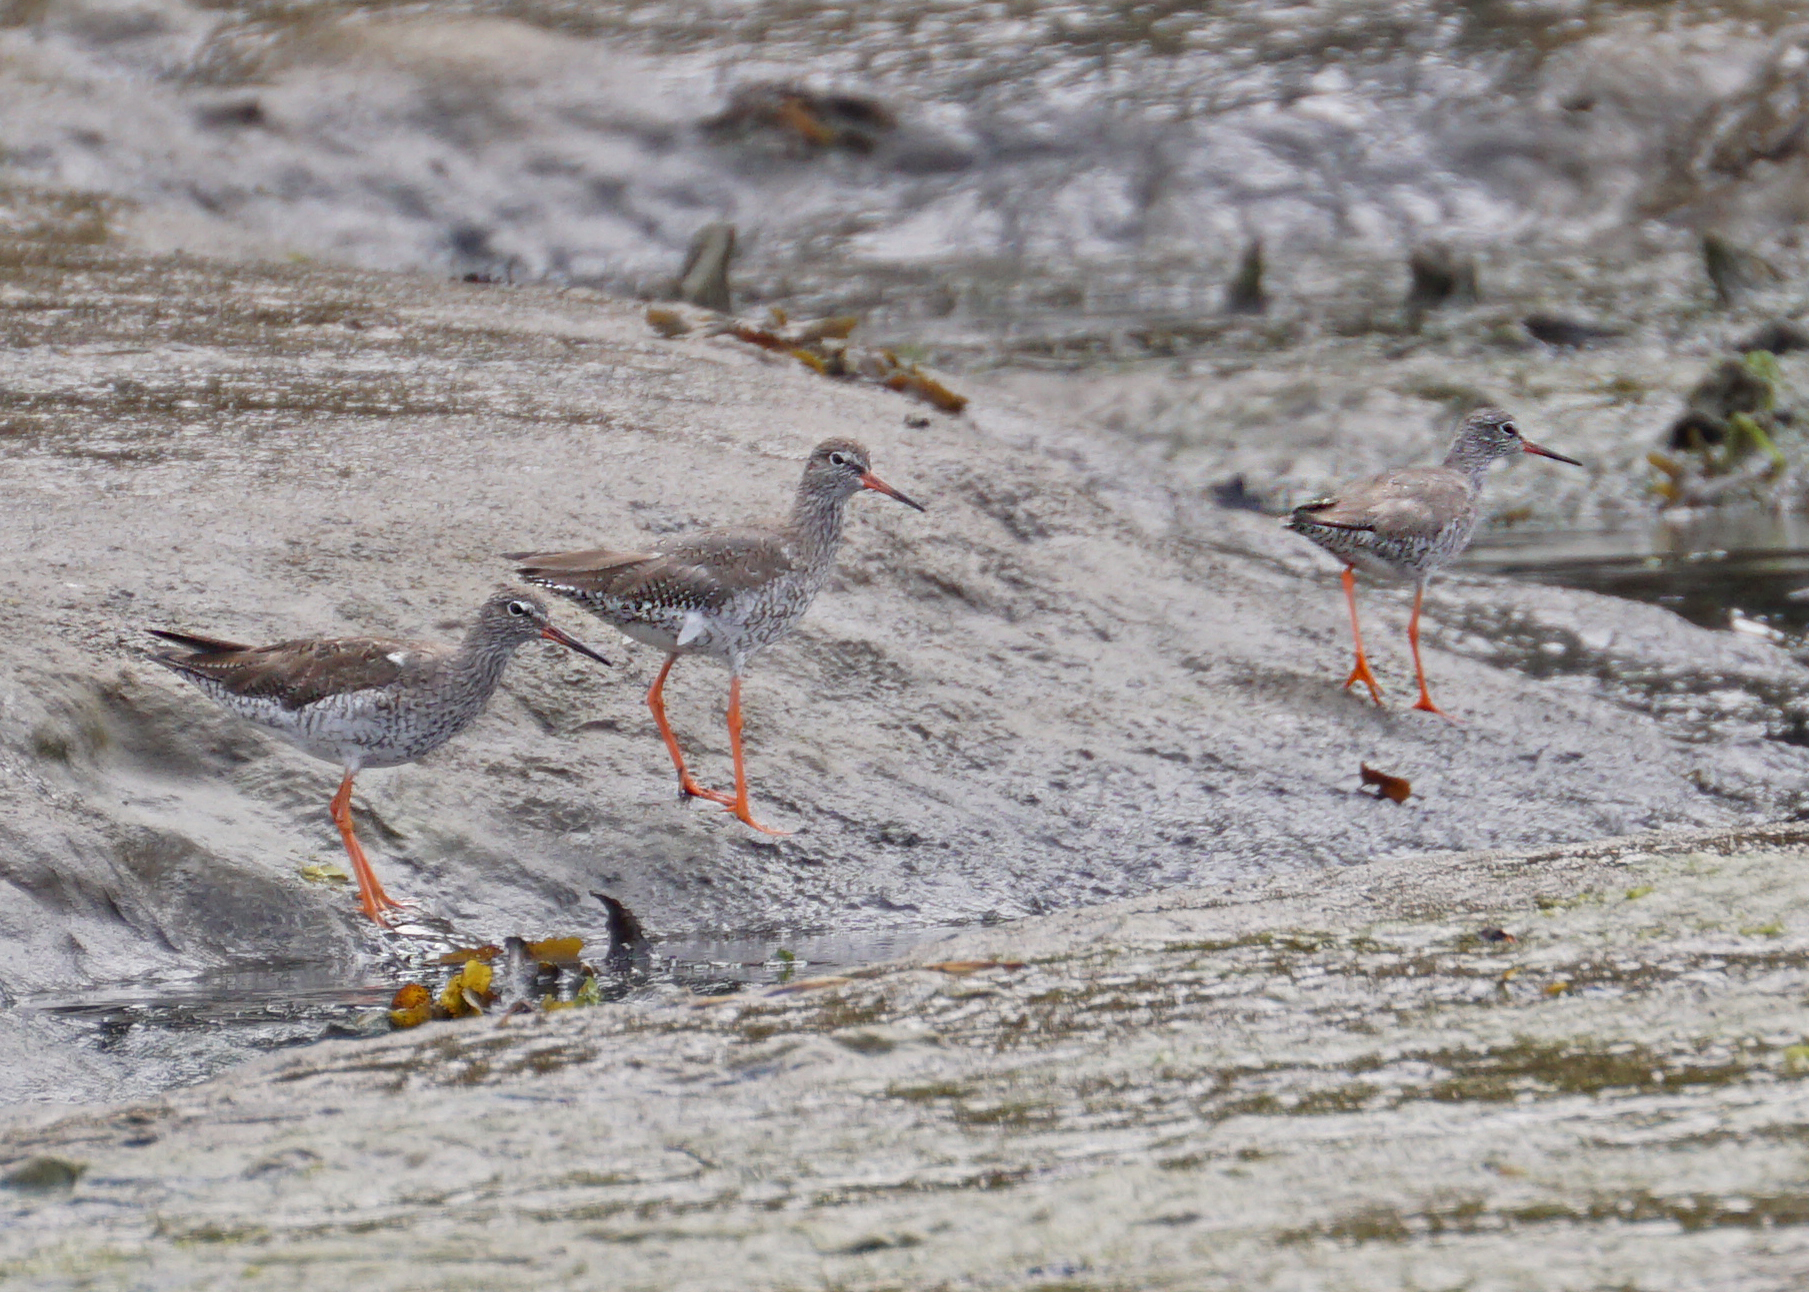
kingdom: Animalia
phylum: Chordata
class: Aves
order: Charadriiformes
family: Scolopacidae
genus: Tringa
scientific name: Tringa totanus
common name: Common redshank
